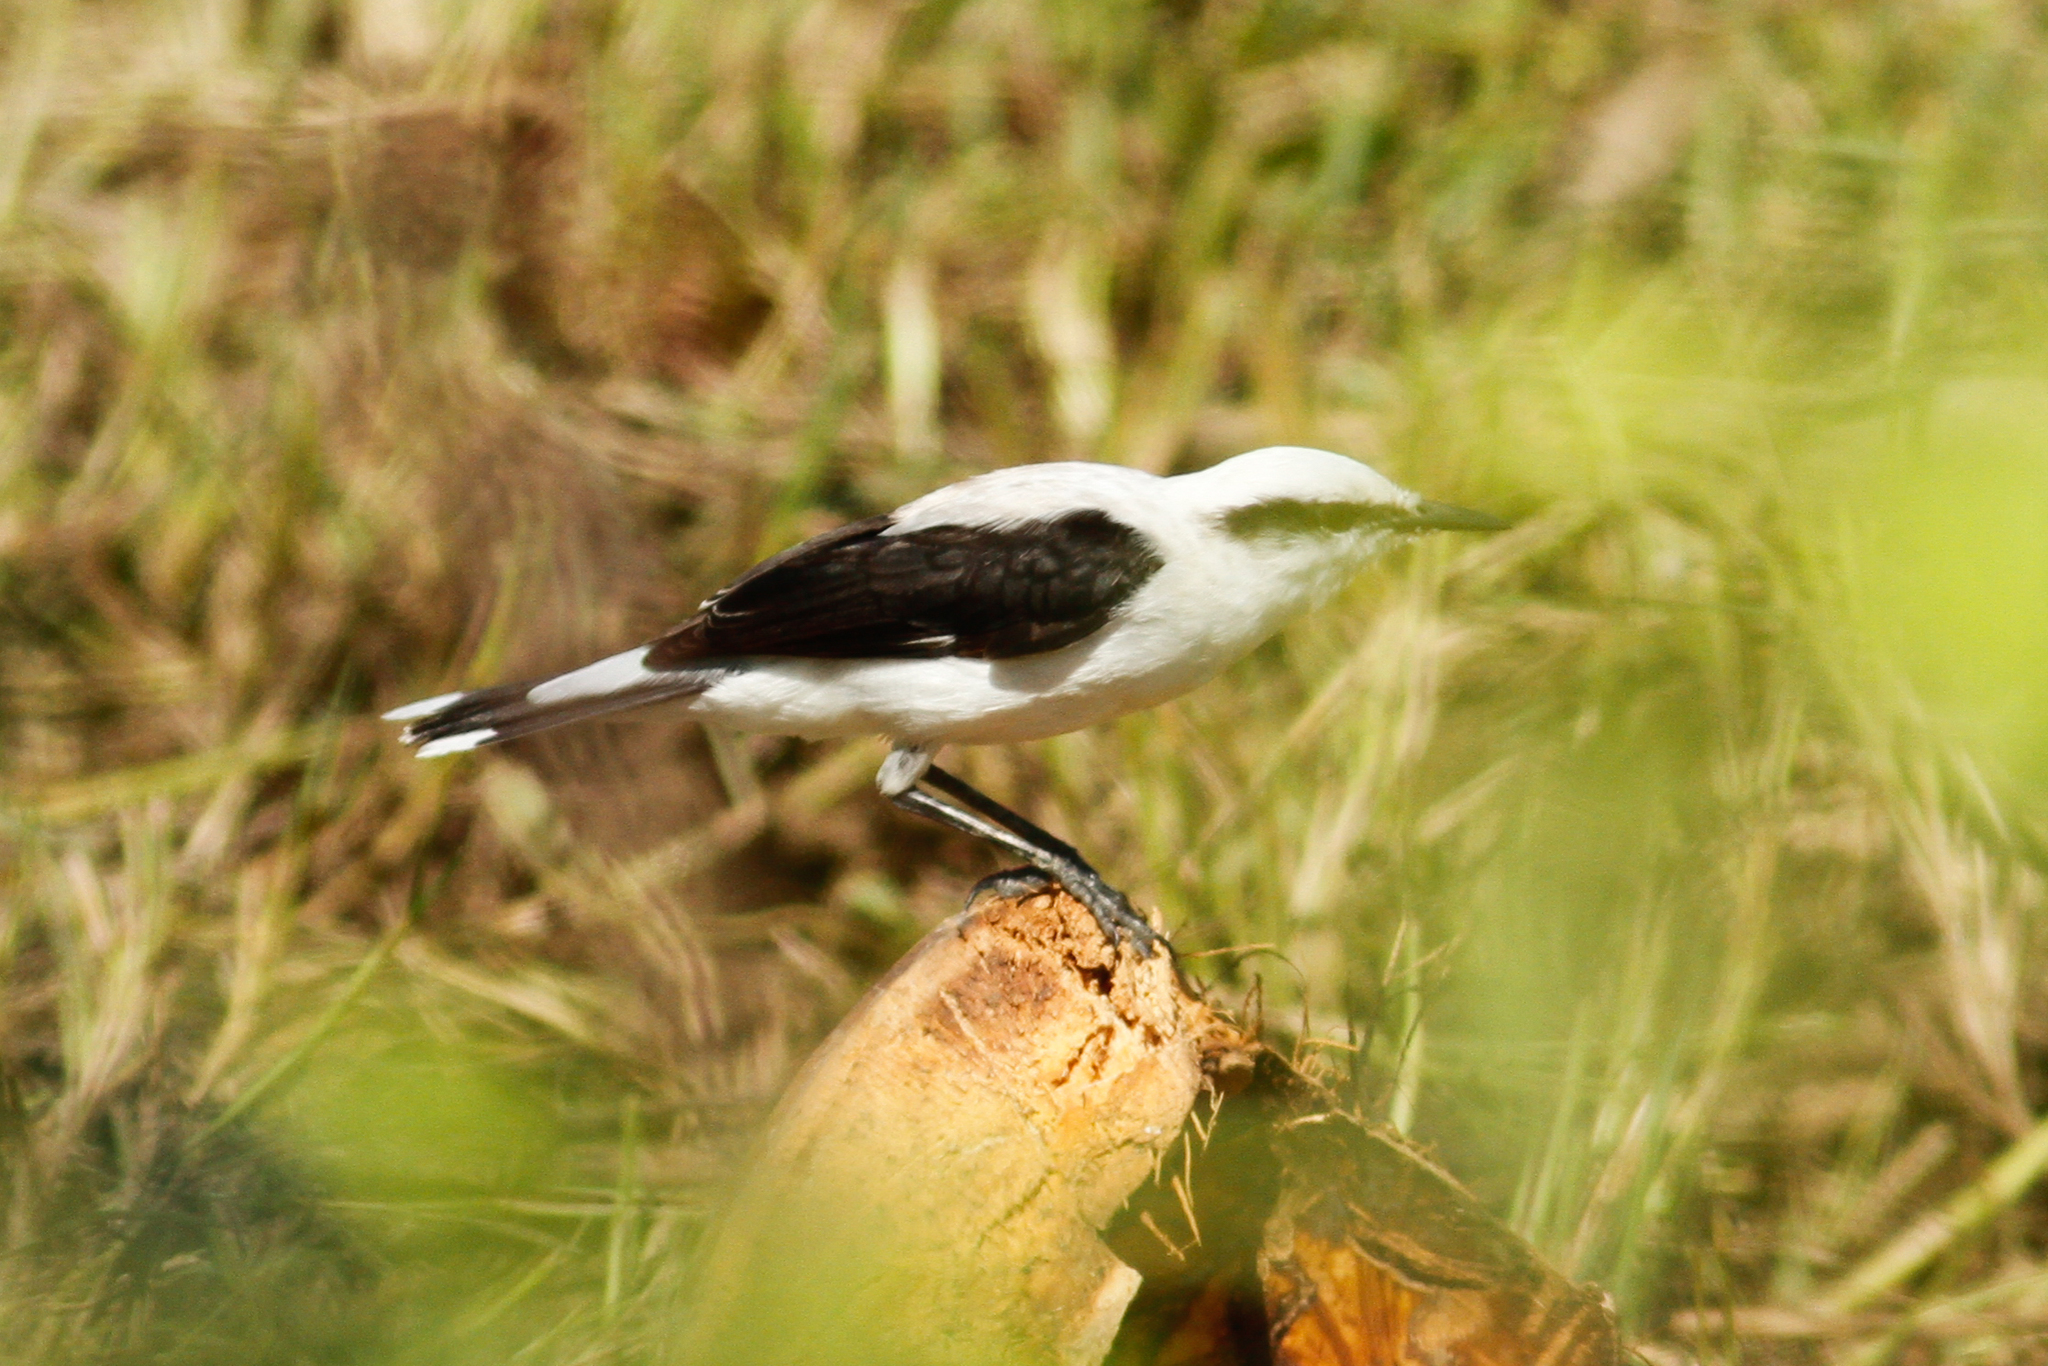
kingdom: Animalia
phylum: Chordata
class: Aves
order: Passeriformes
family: Tyrannidae
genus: Fluvicola
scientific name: Fluvicola nengeta
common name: Masked water tyrant
